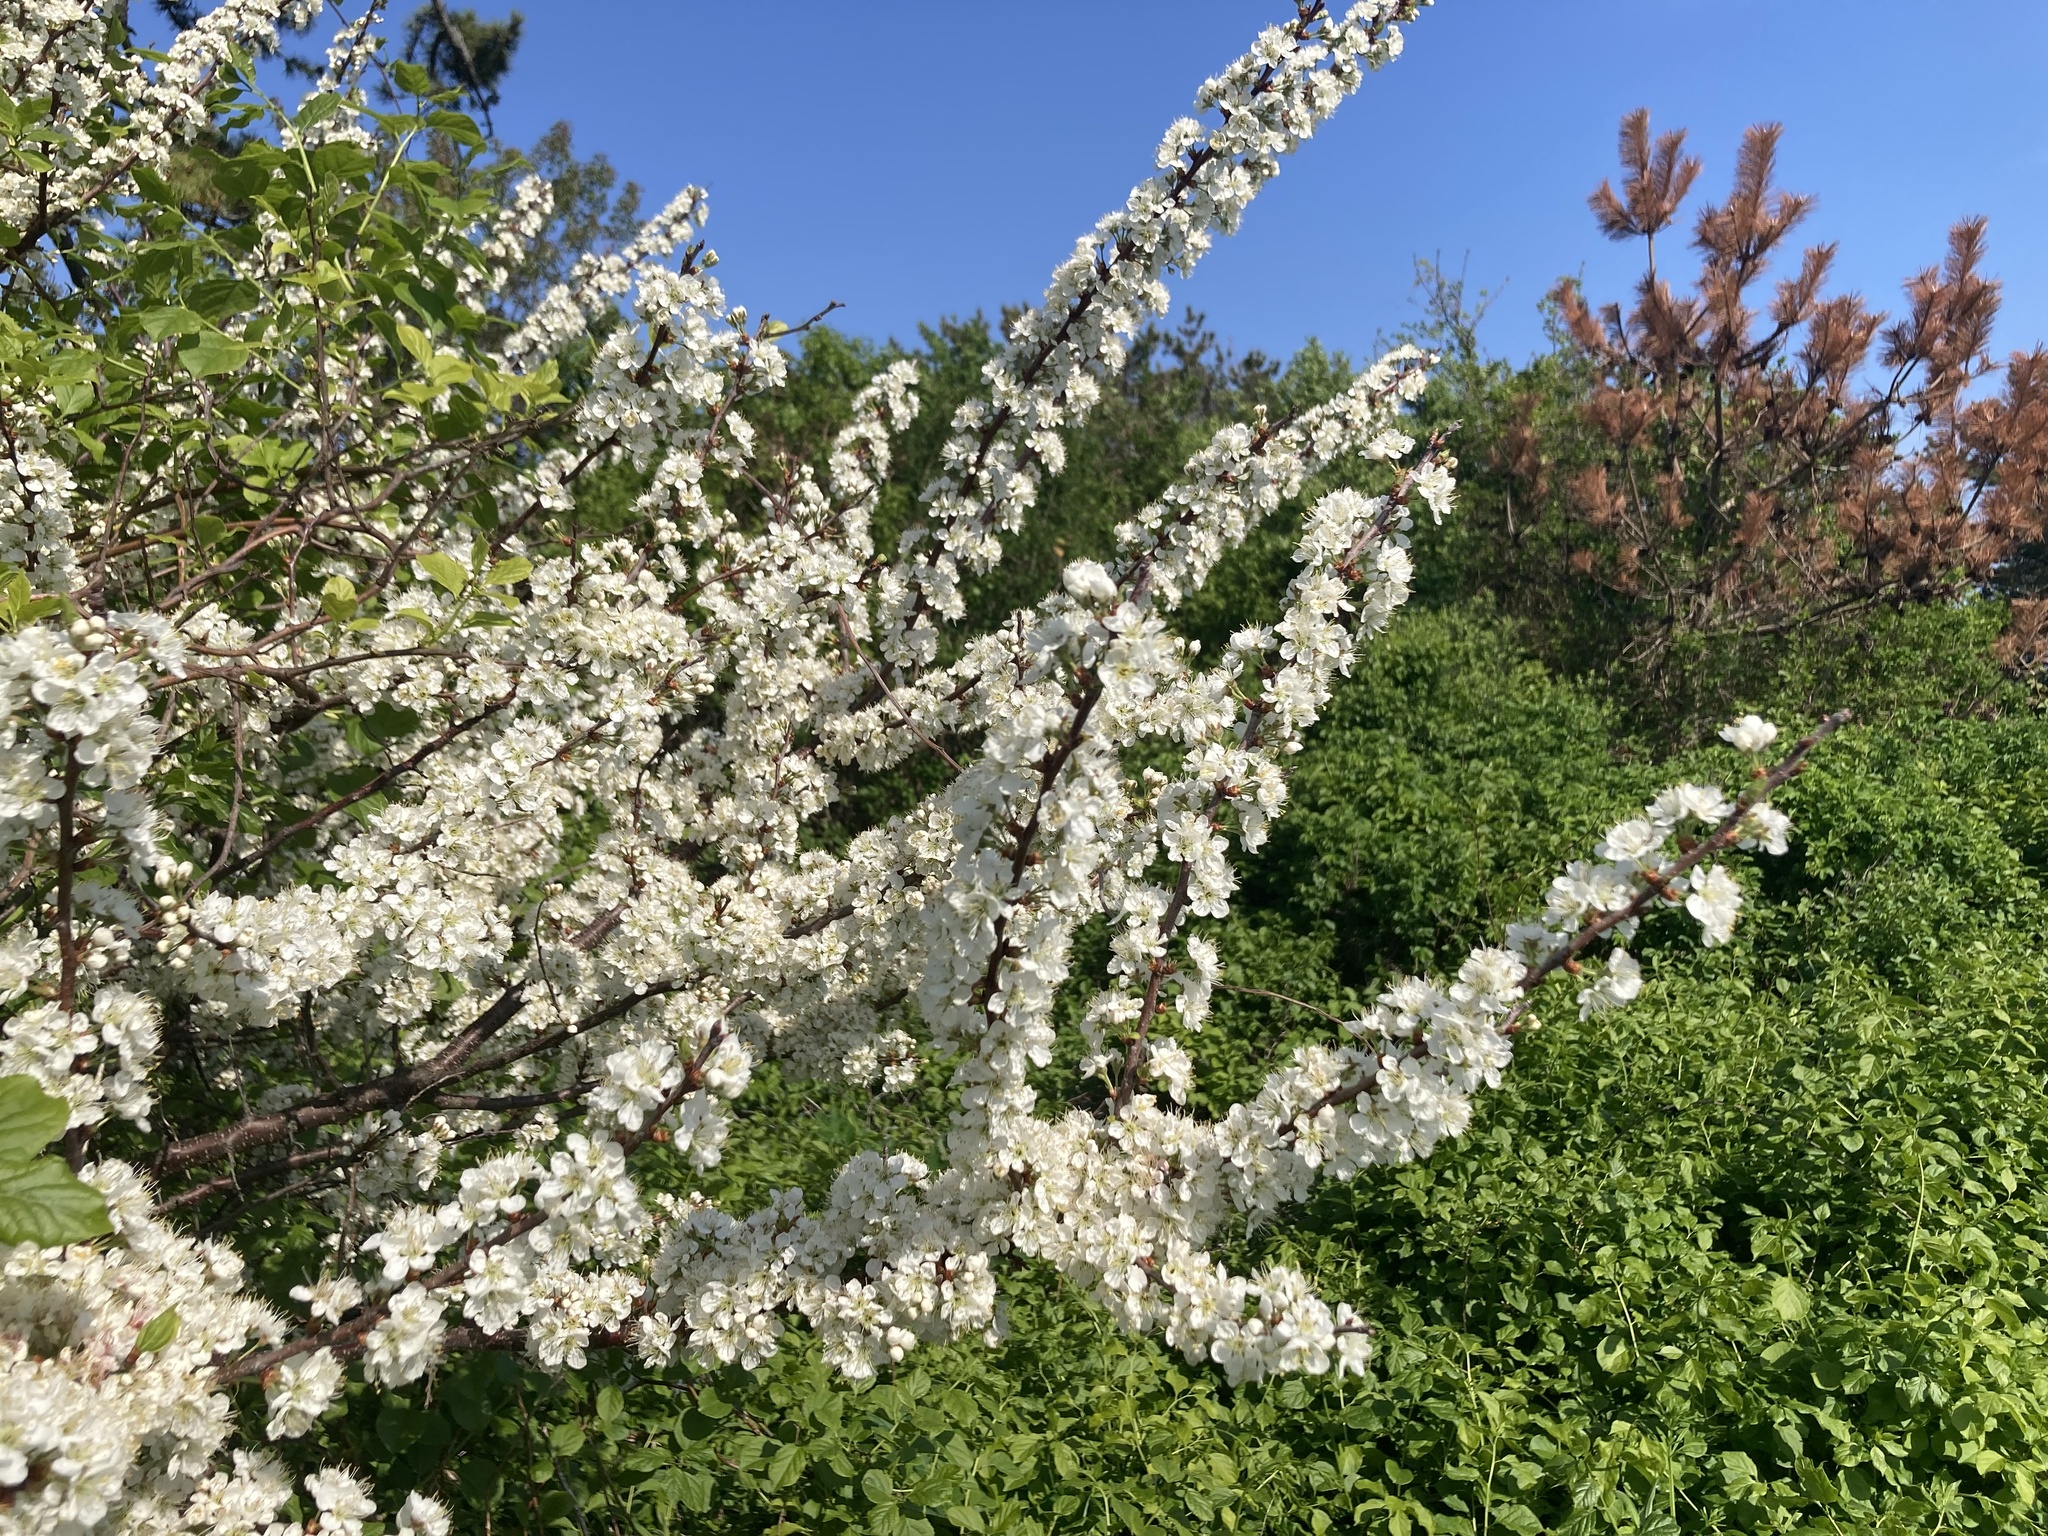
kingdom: Plantae
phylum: Tracheophyta
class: Magnoliopsida
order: Rosales
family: Rosaceae
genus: Prunus
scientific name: Prunus maritima
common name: Beach plum
